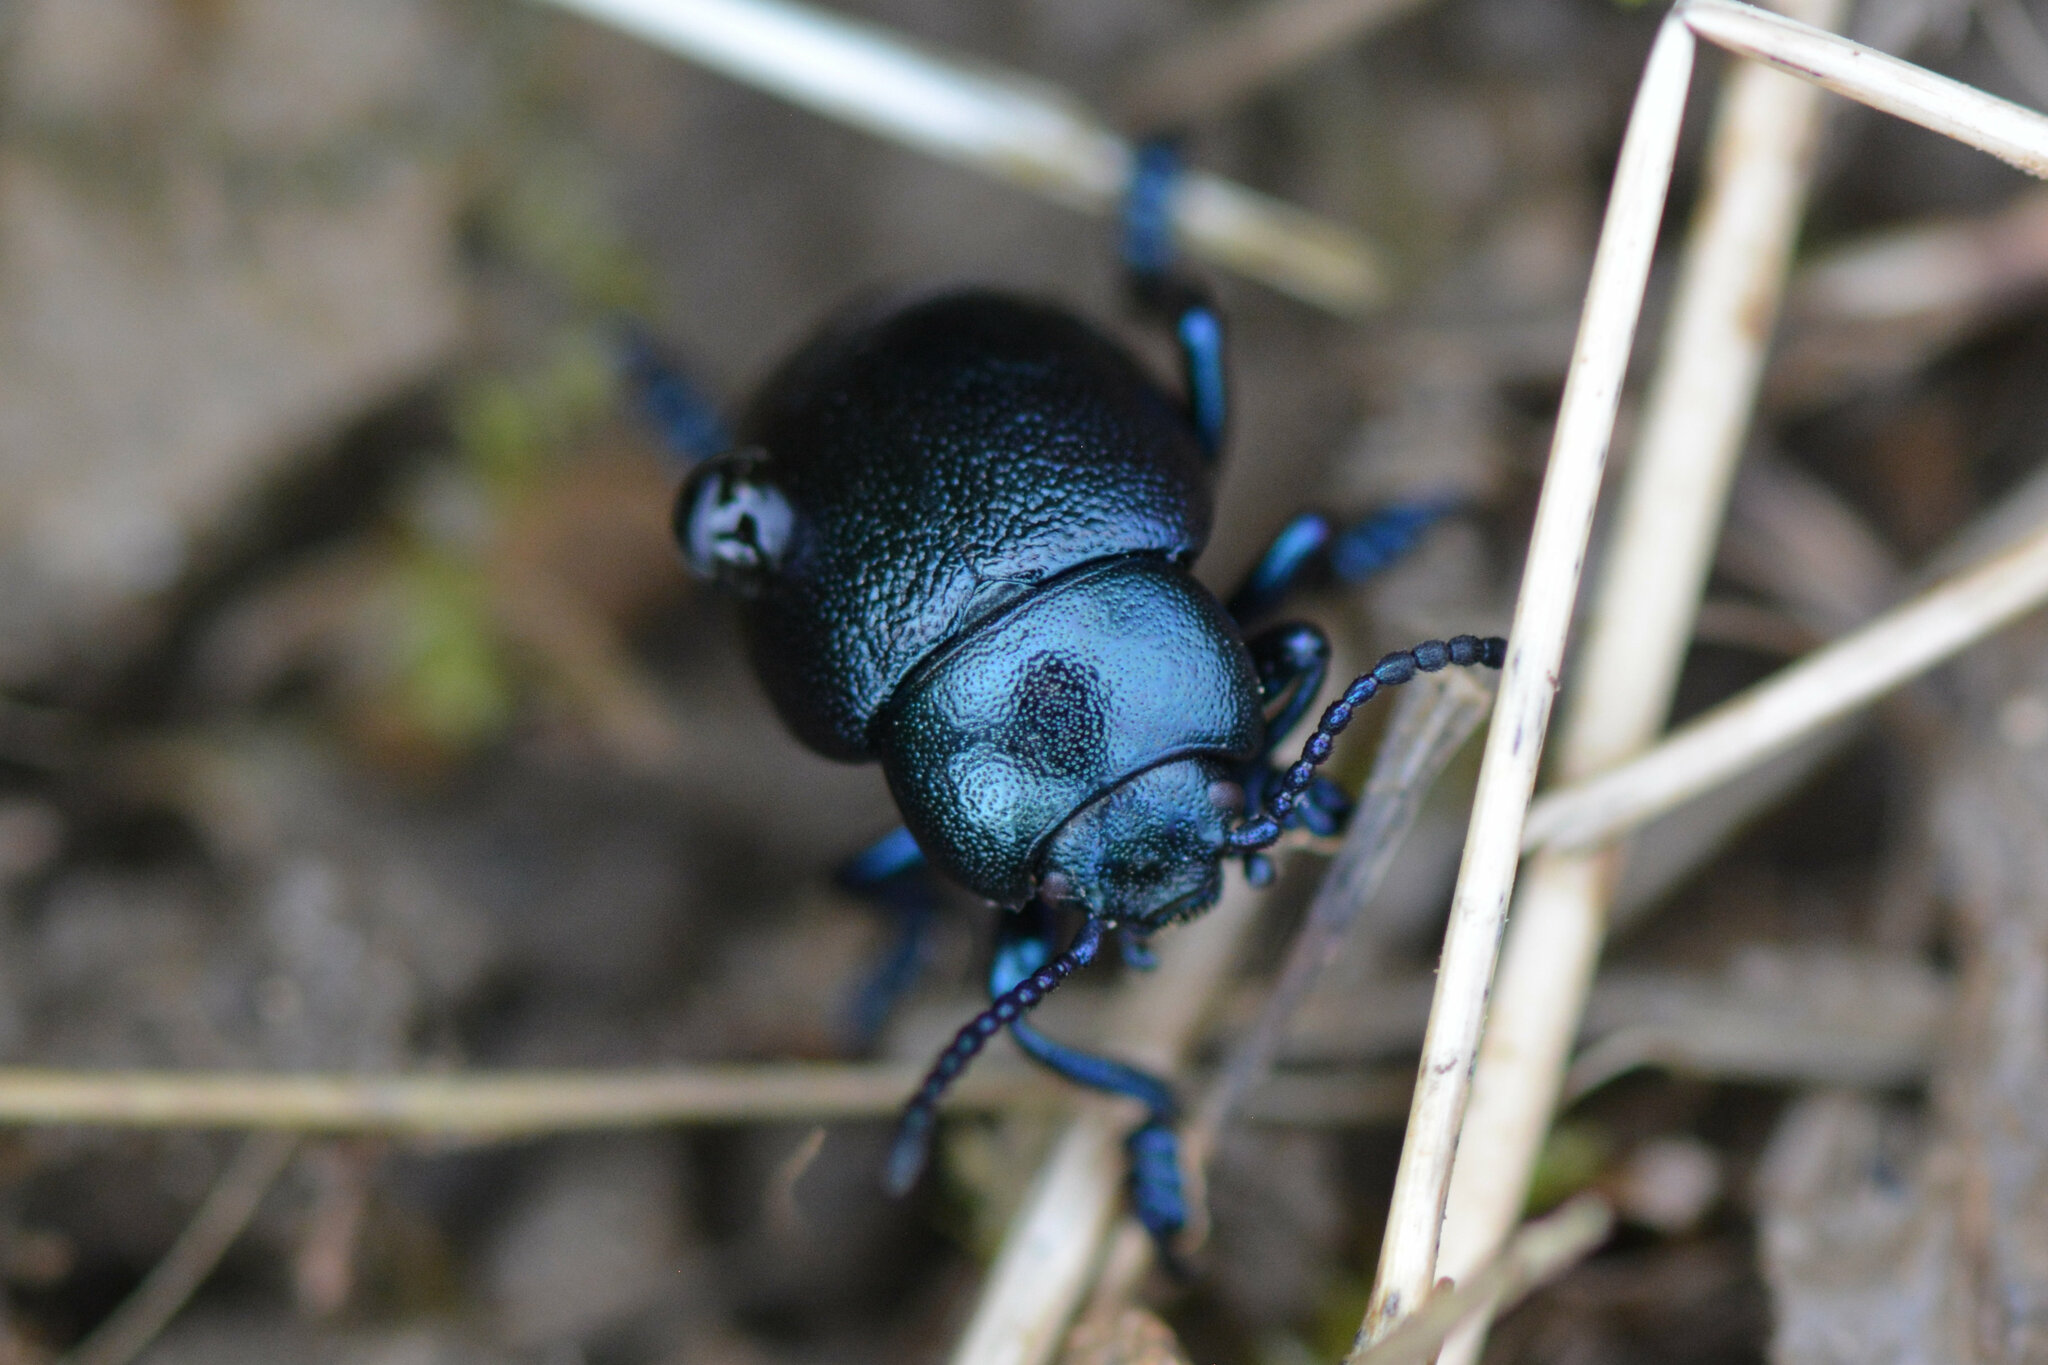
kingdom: Animalia
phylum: Arthropoda
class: Insecta
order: Coleoptera
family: Chrysomelidae
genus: Timarcha
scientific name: Timarcha goettingensis
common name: Small bloody-nosed beetle
